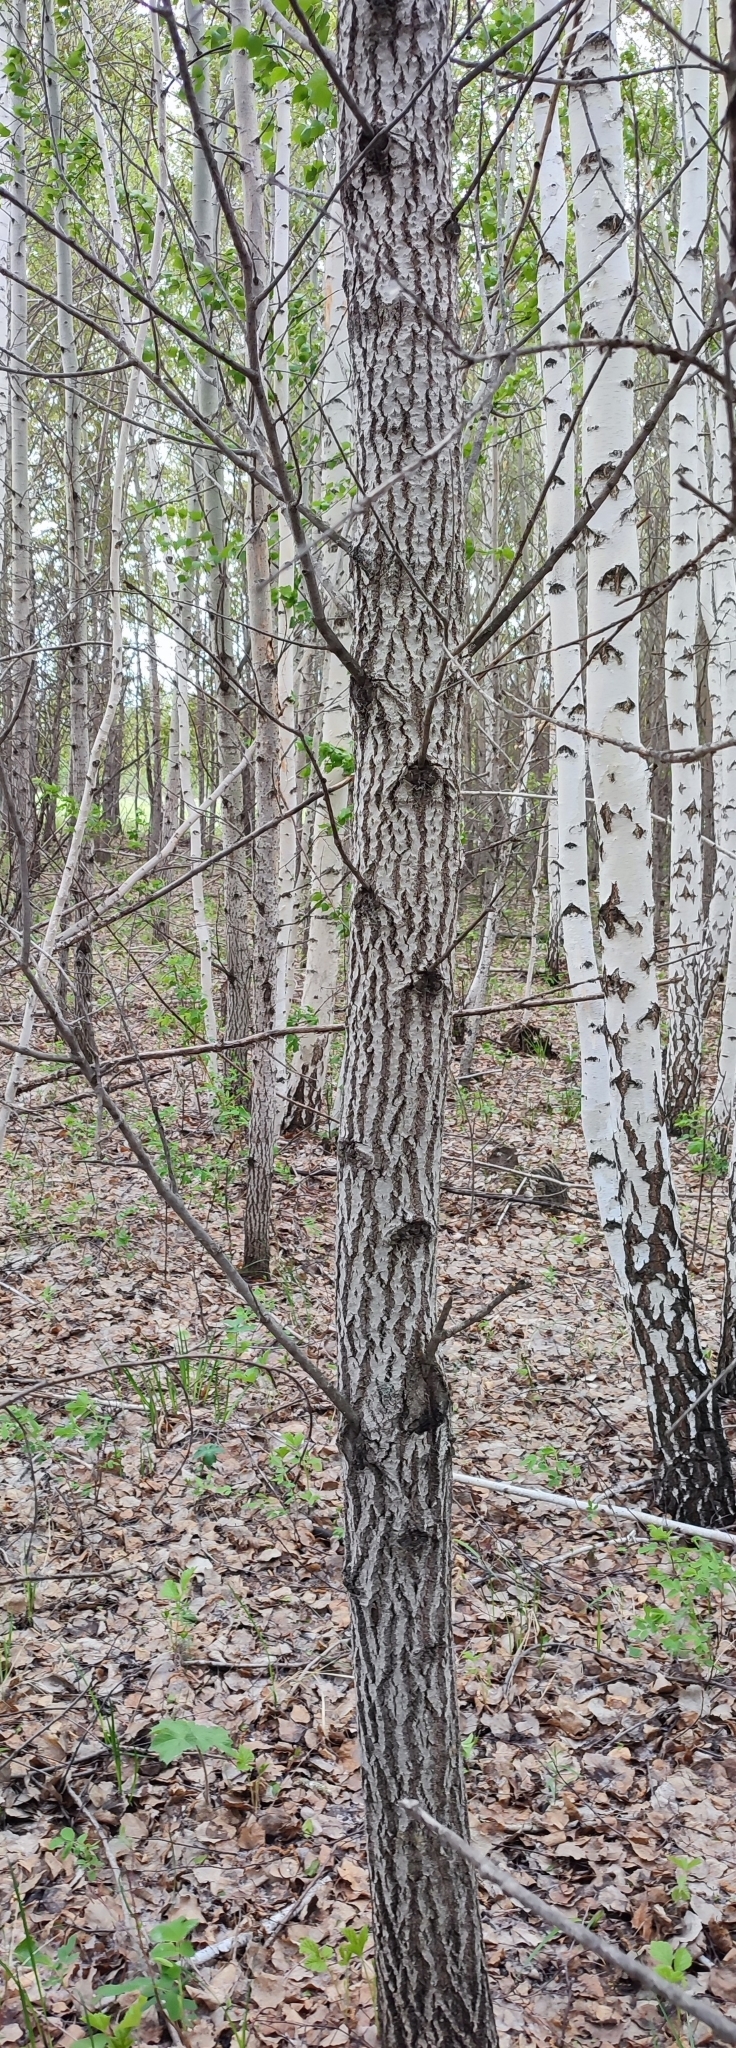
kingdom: Plantae
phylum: Tracheophyta
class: Magnoliopsida
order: Malpighiales
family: Salicaceae
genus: Populus
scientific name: Populus tremula
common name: European aspen
